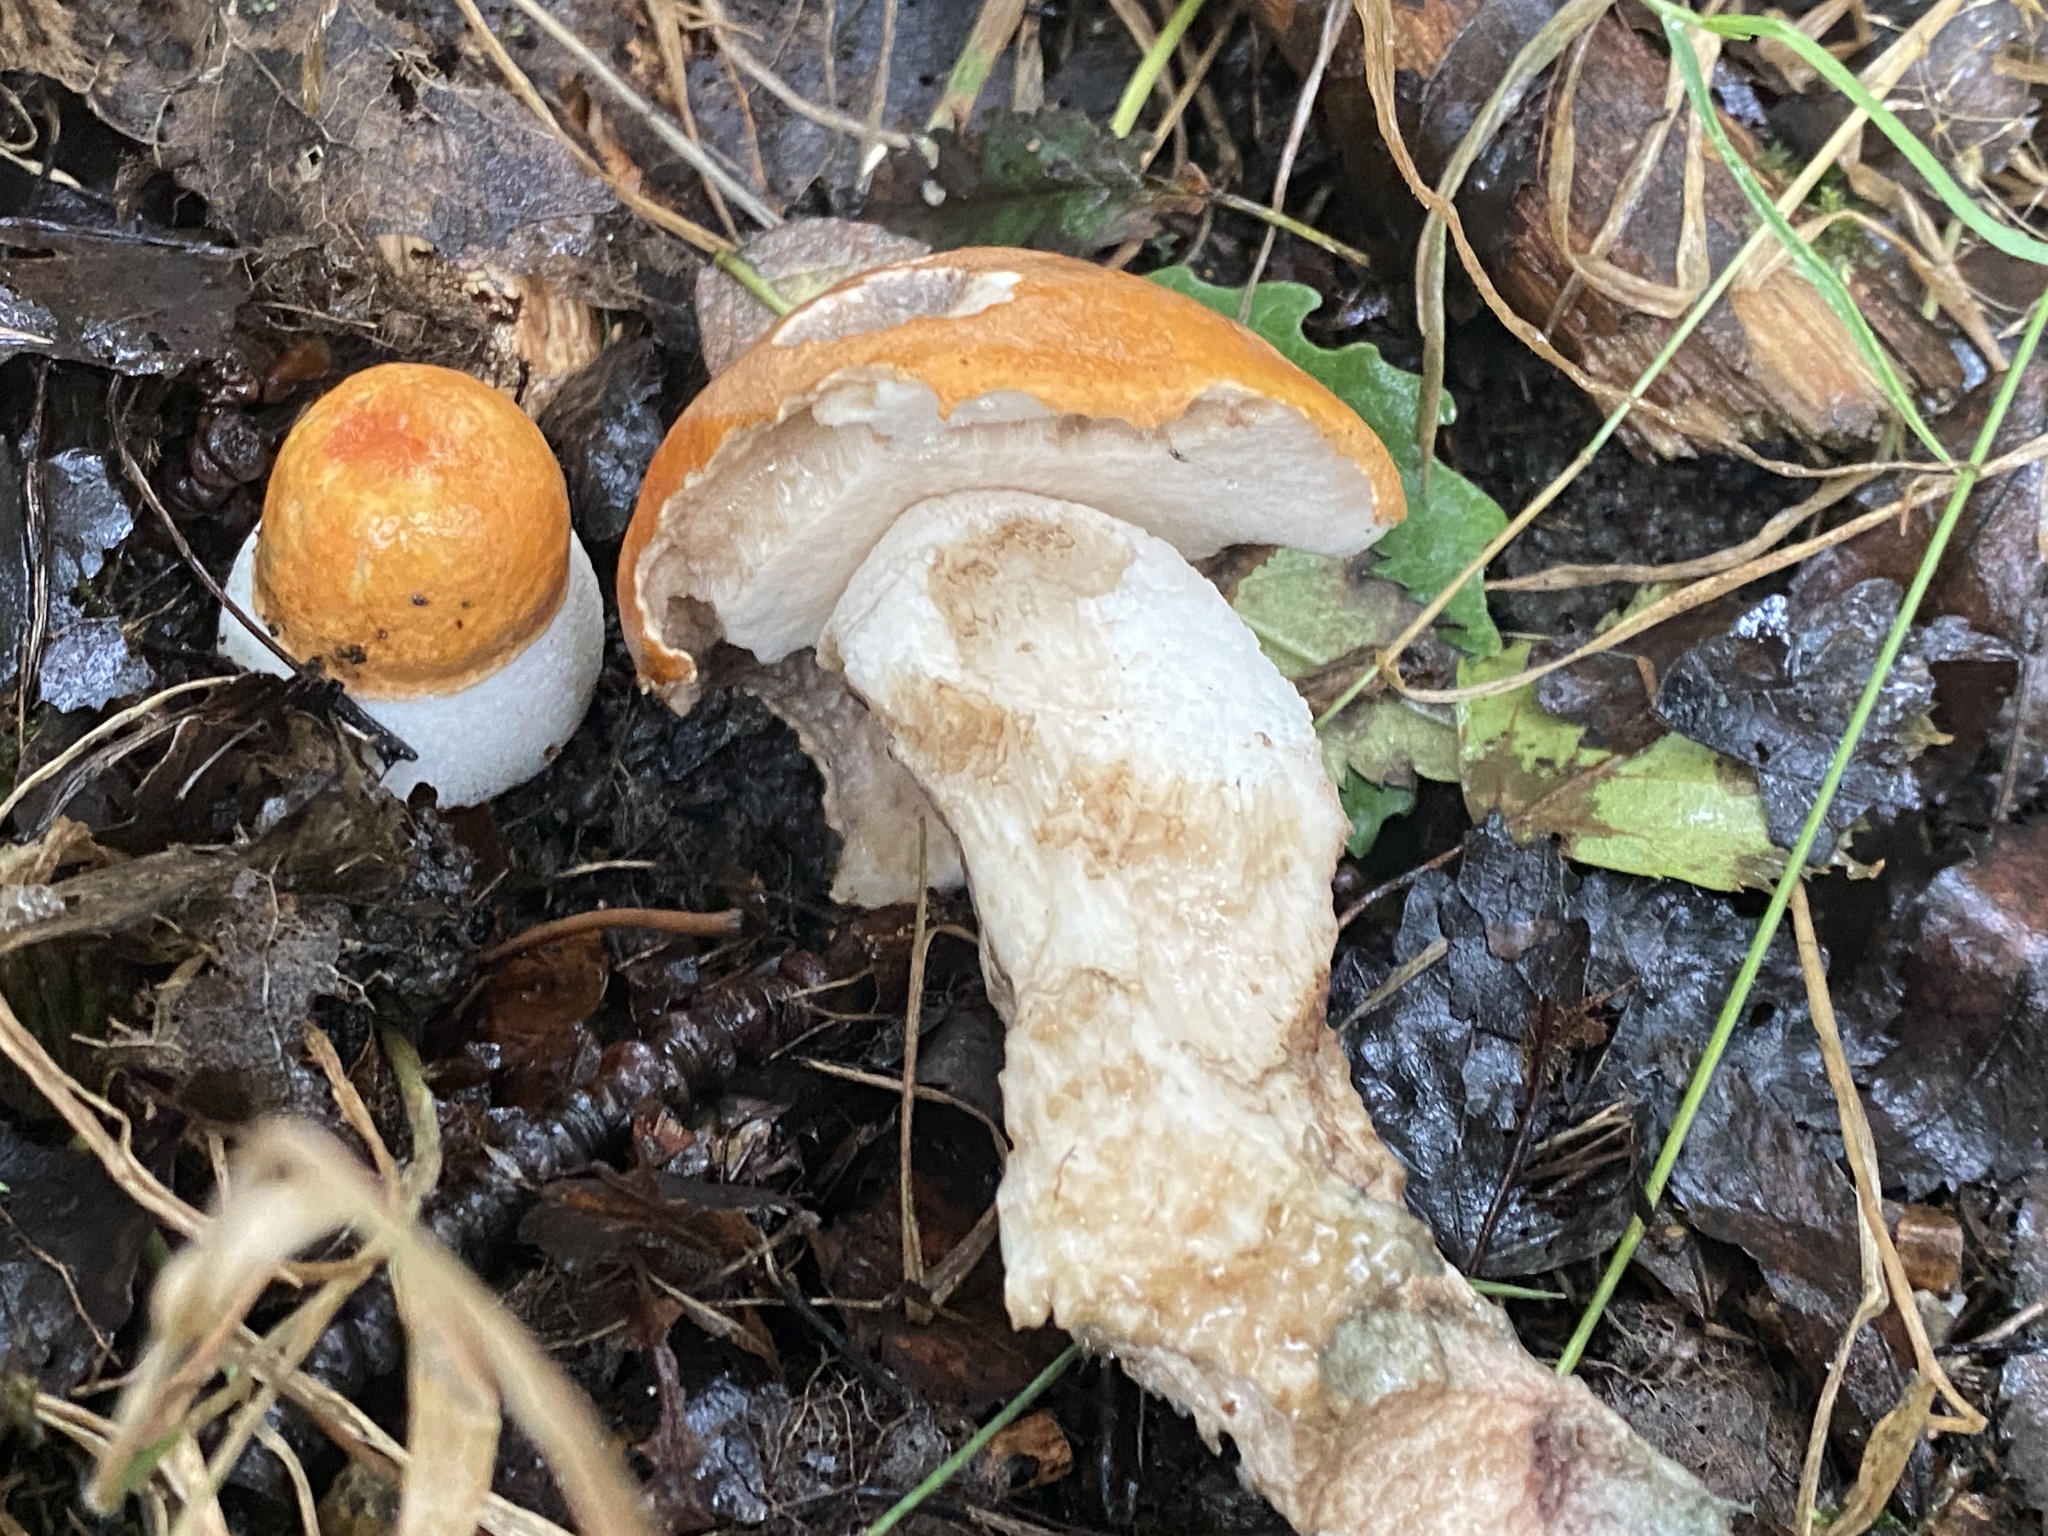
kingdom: Fungi
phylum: Basidiomycota
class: Agaricomycetes
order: Boletales
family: Boletaceae
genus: Leccinum
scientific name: Leccinum albostipitatum
